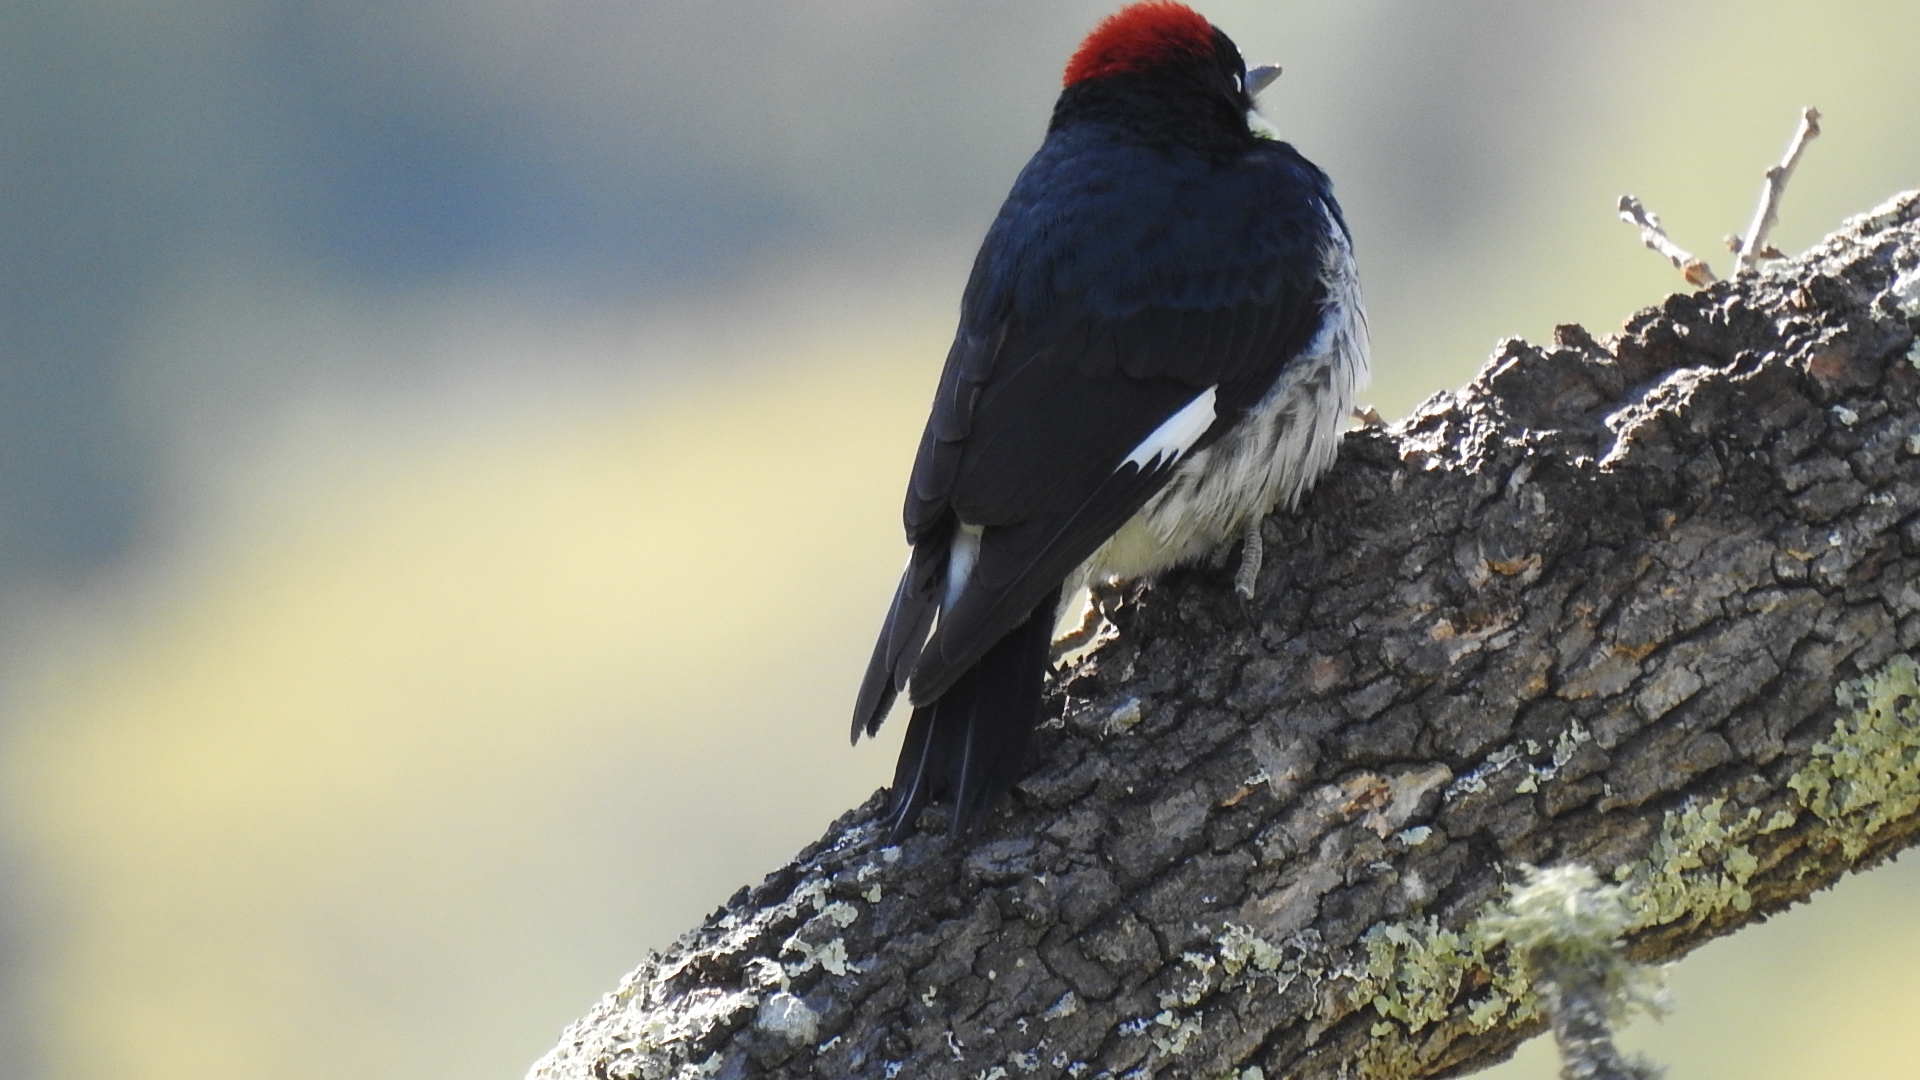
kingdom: Animalia
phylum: Chordata
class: Aves
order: Piciformes
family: Picidae
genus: Melanerpes
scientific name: Melanerpes formicivorus
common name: Acorn woodpecker
